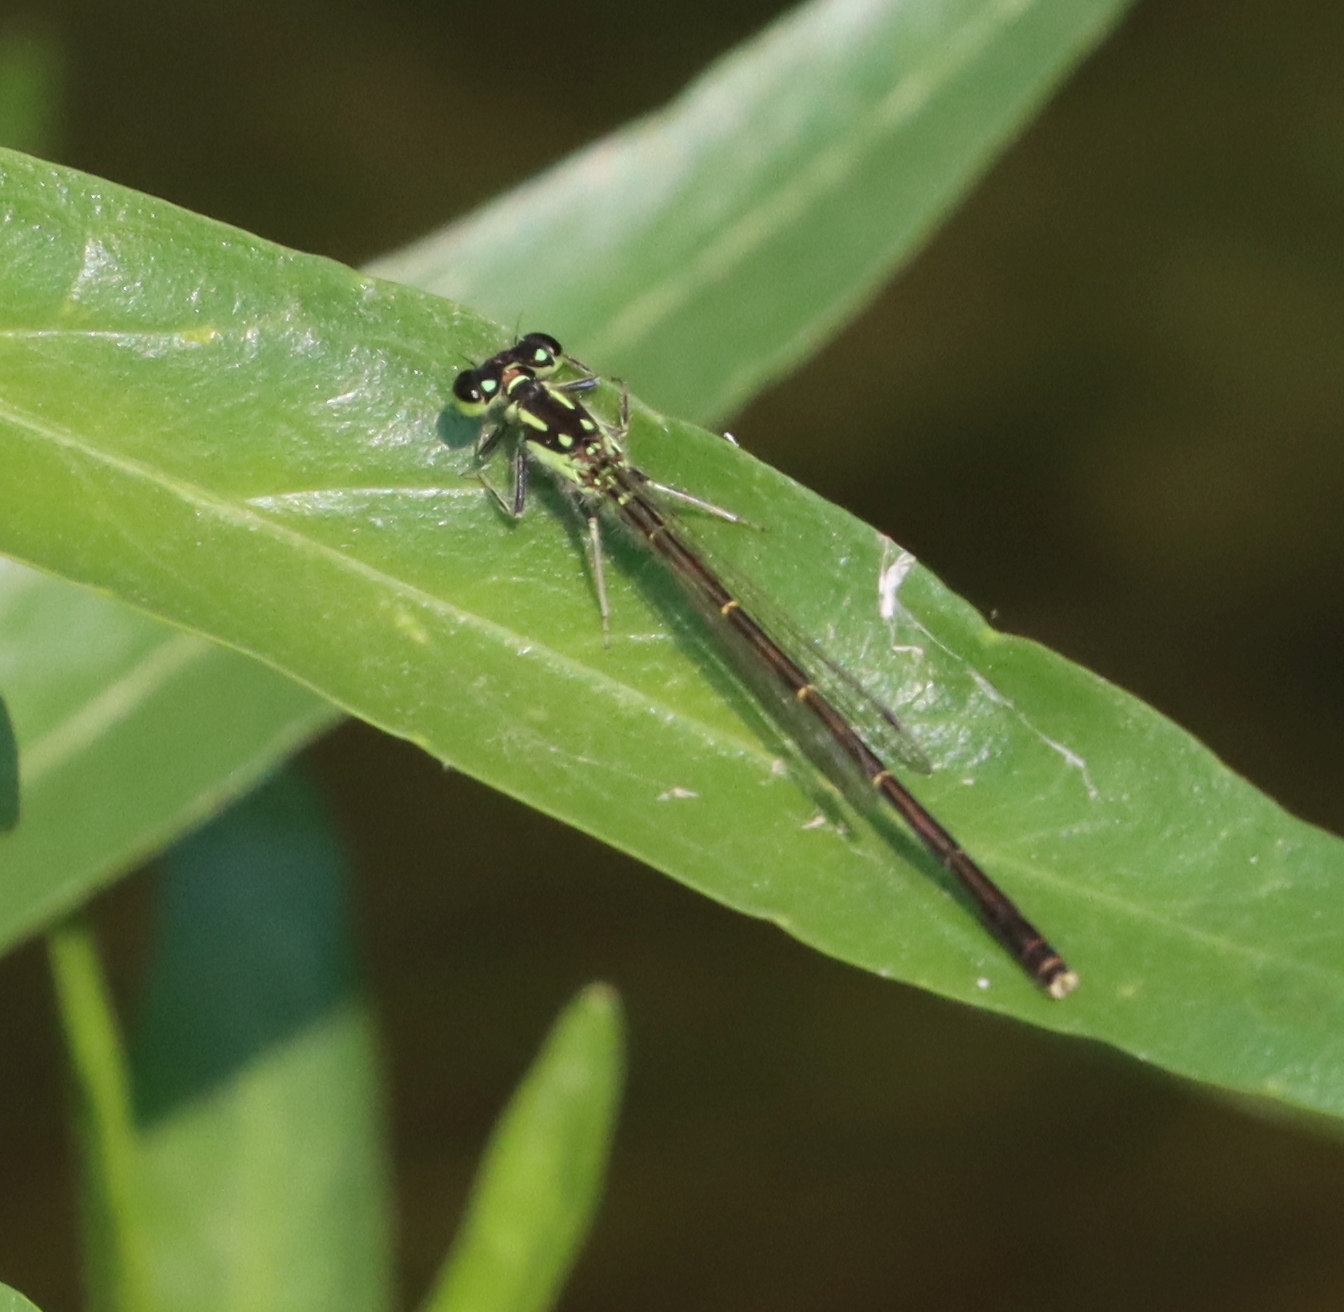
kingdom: Animalia
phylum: Arthropoda
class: Insecta
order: Odonata
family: Coenagrionidae
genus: Ischnura
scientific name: Ischnura posita
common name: Fragile forktail
